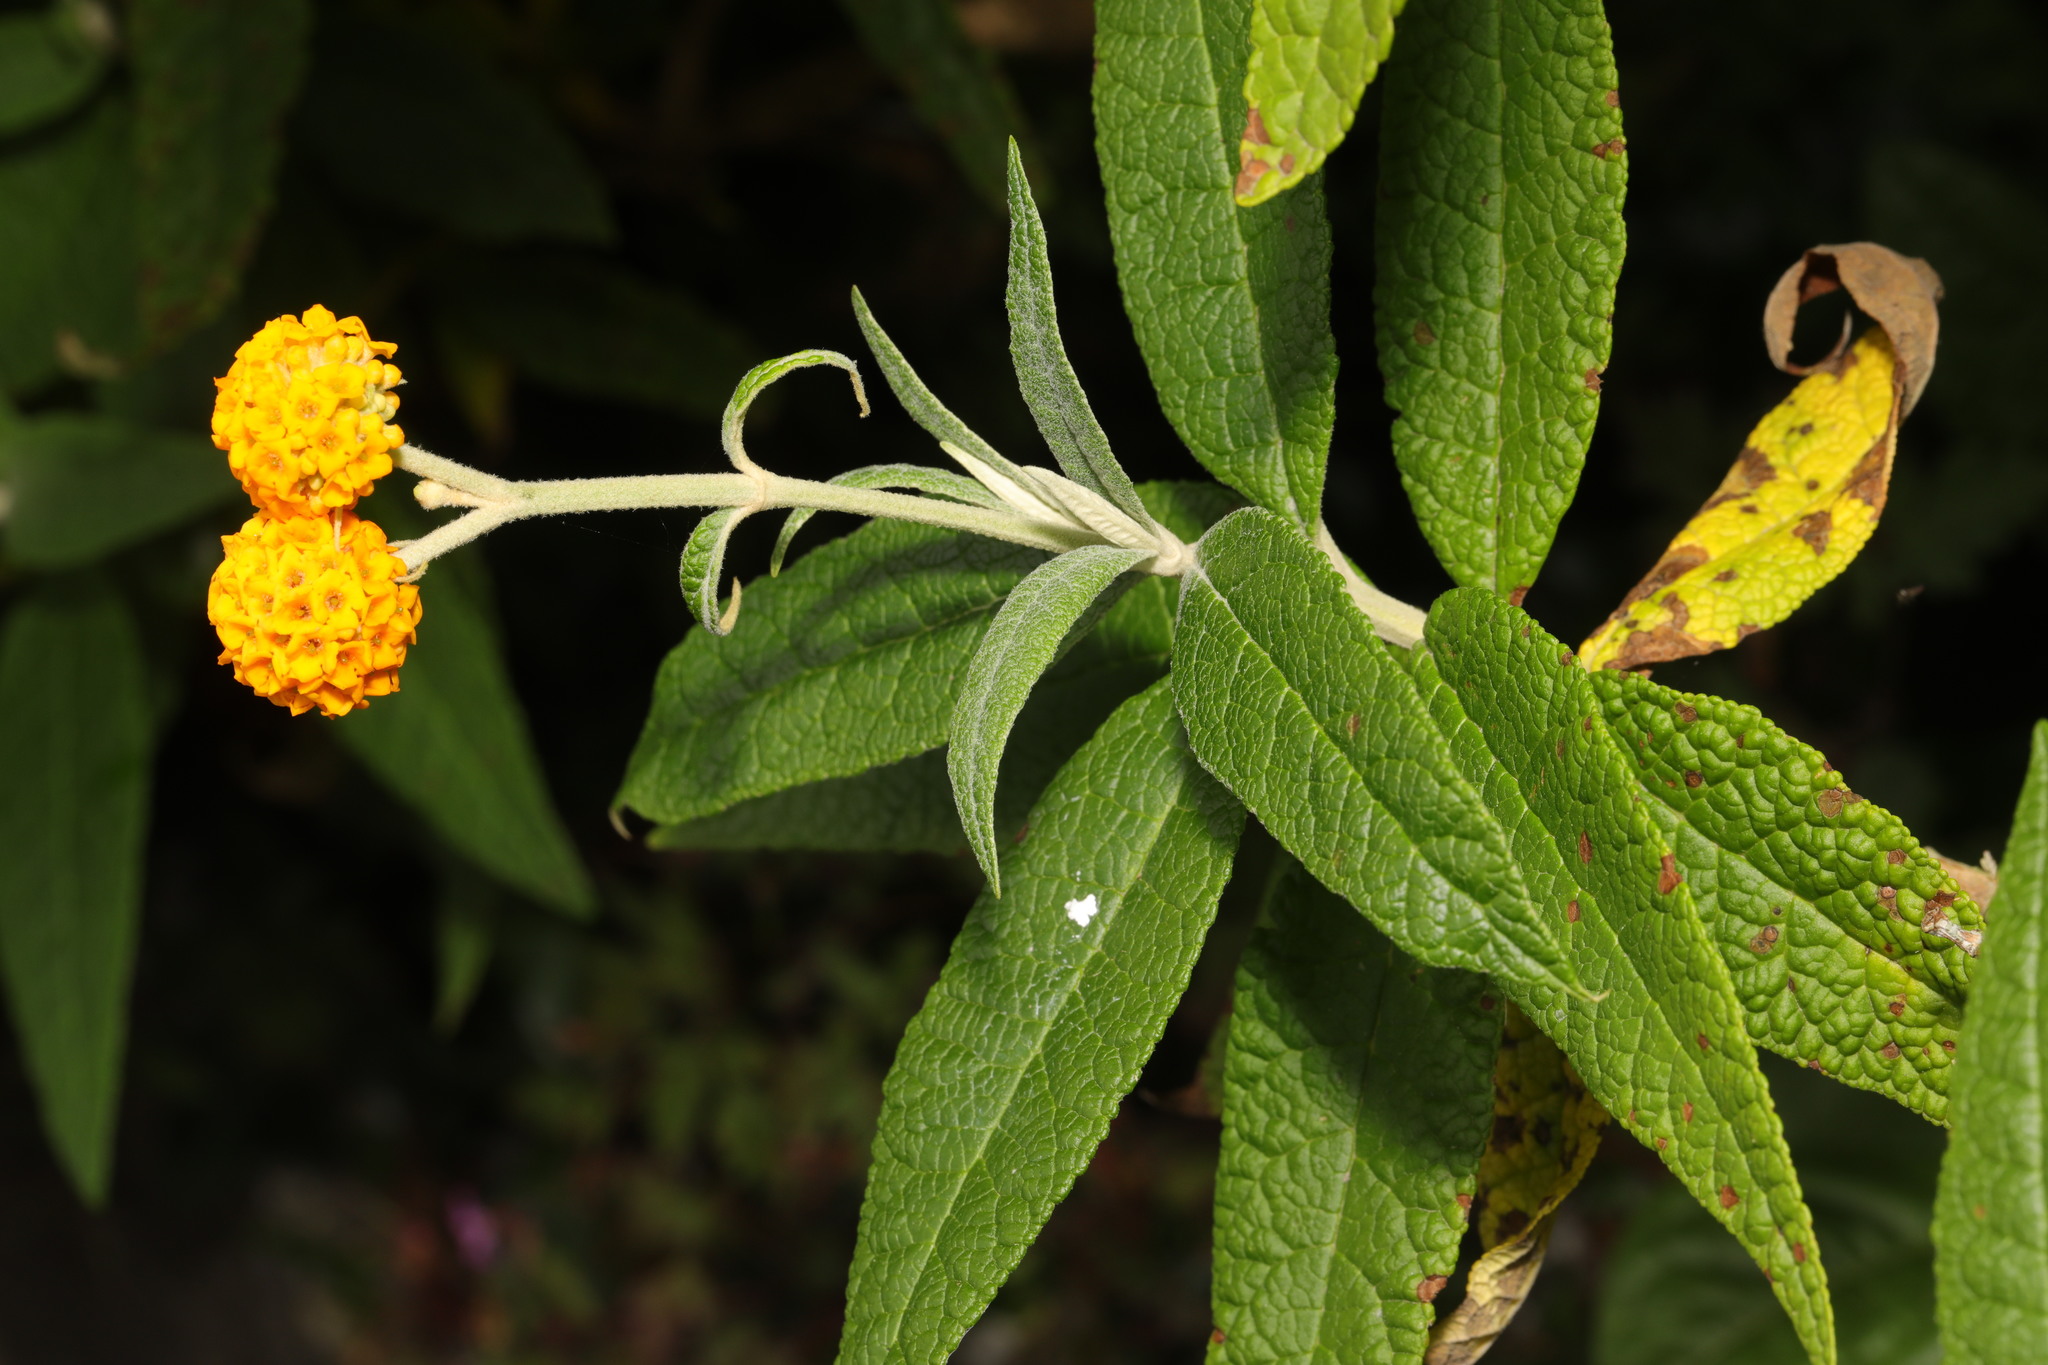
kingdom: Plantae
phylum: Tracheophyta
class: Magnoliopsida
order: Lamiales
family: Scrophulariaceae
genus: Buddleja
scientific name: Buddleja globosa
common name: Orange-ball-tree
